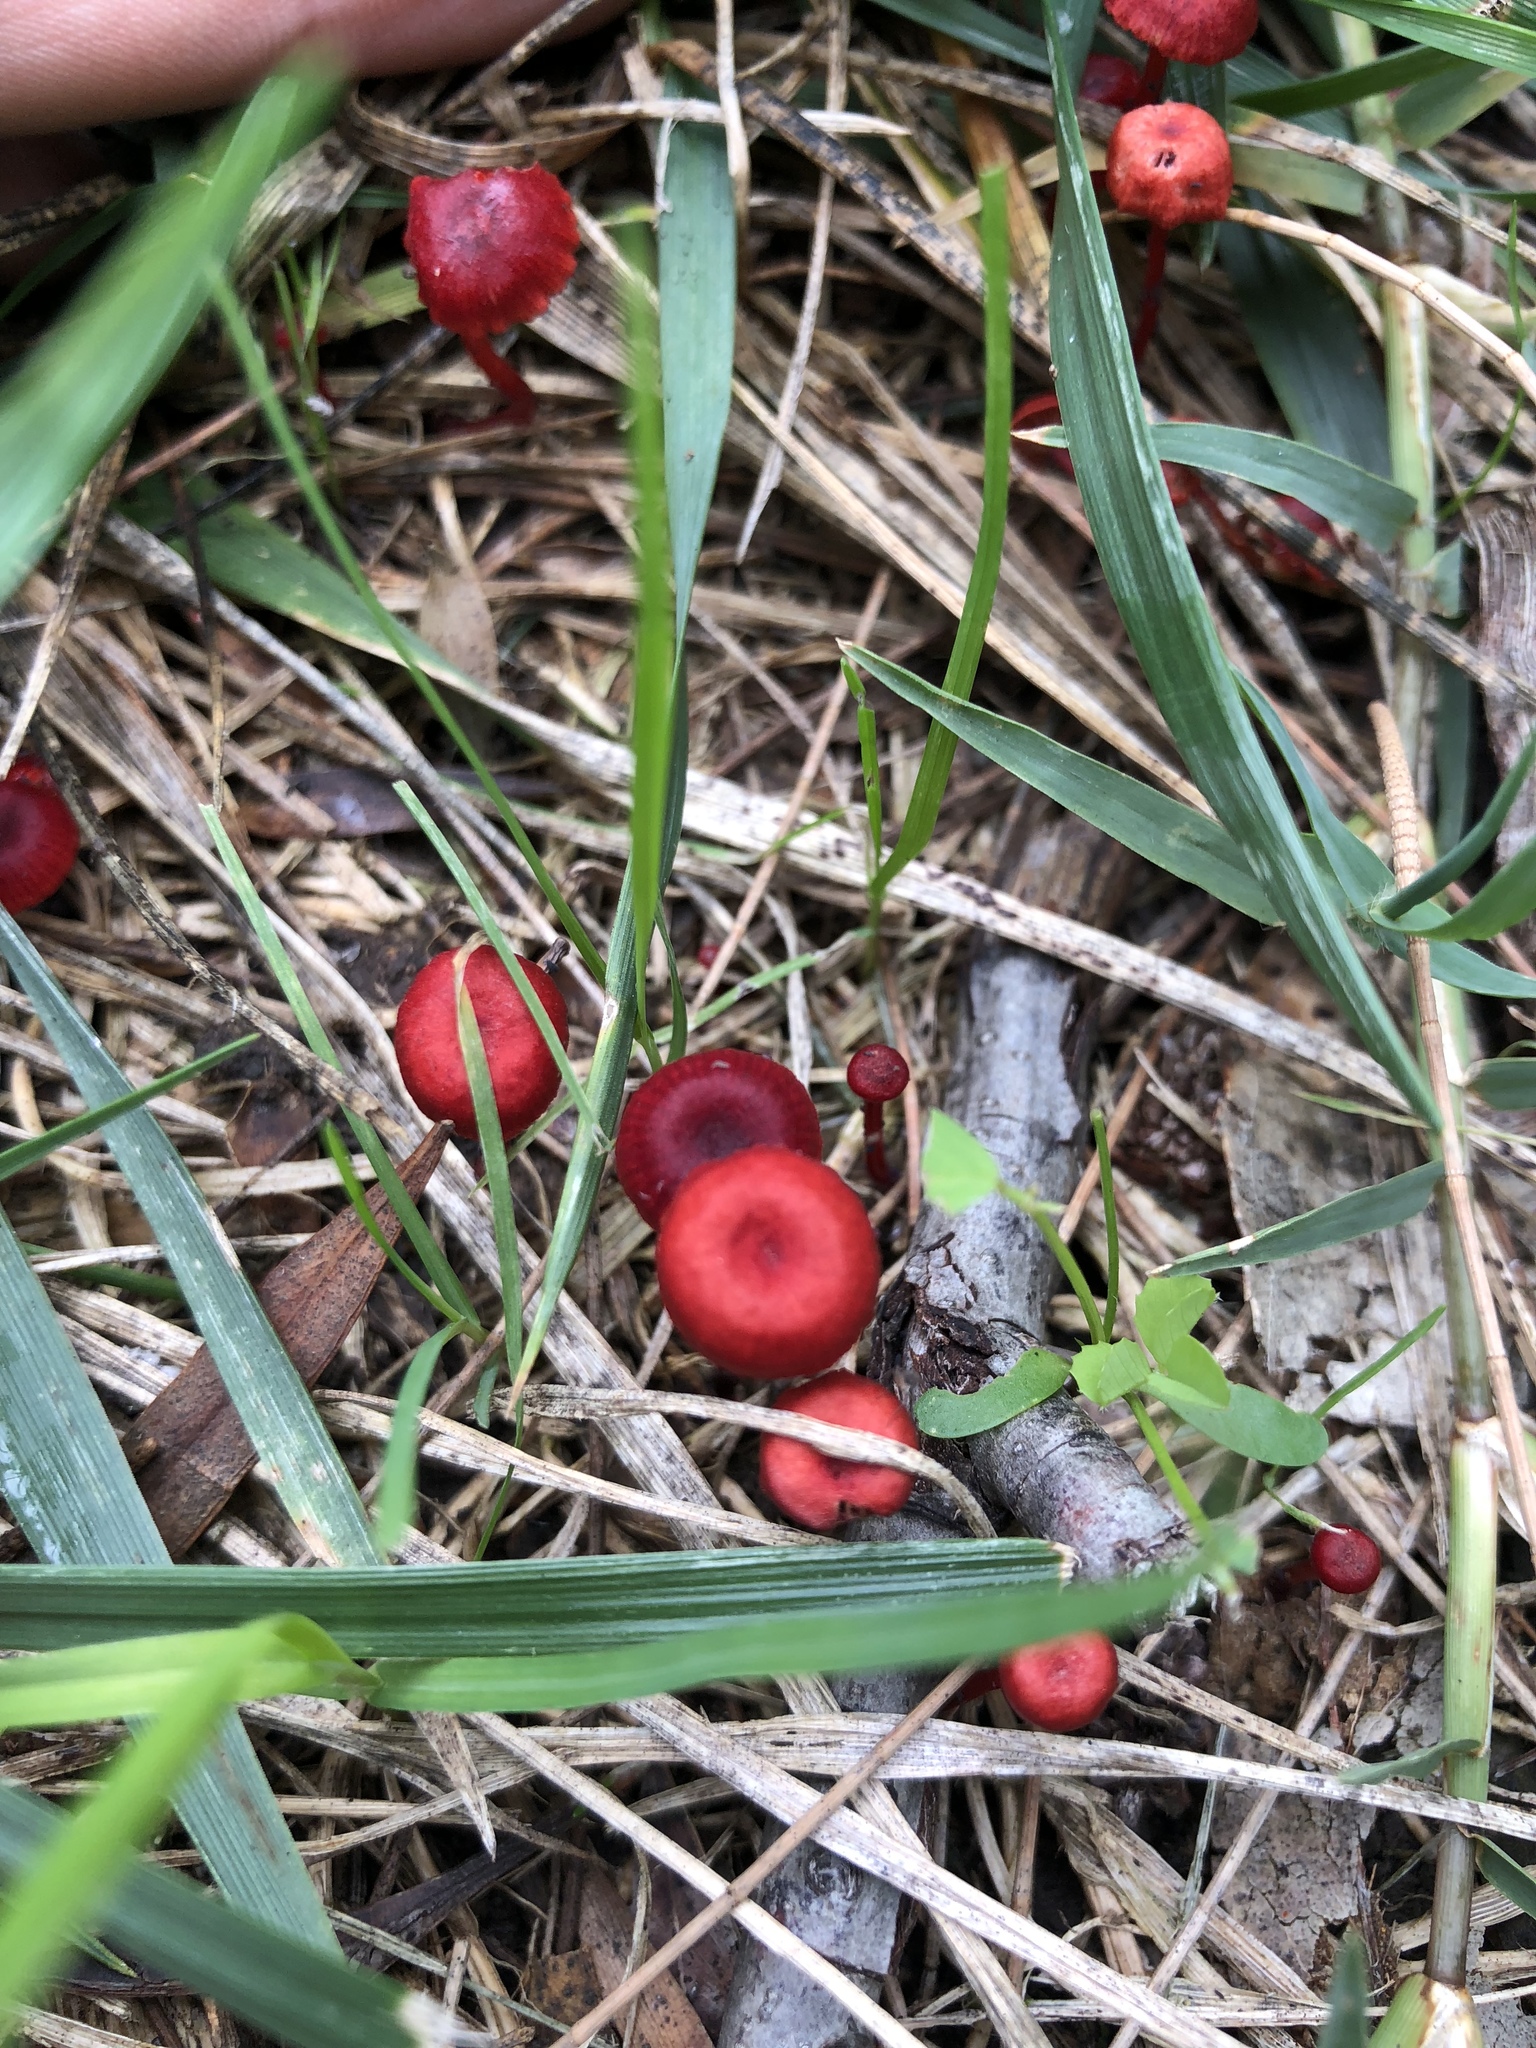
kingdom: Fungi
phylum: Basidiomycota
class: Agaricomycetes
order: Agaricales
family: Mycenaceae
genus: Cruentomycena
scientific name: Cruentomycena viscidocruenta
